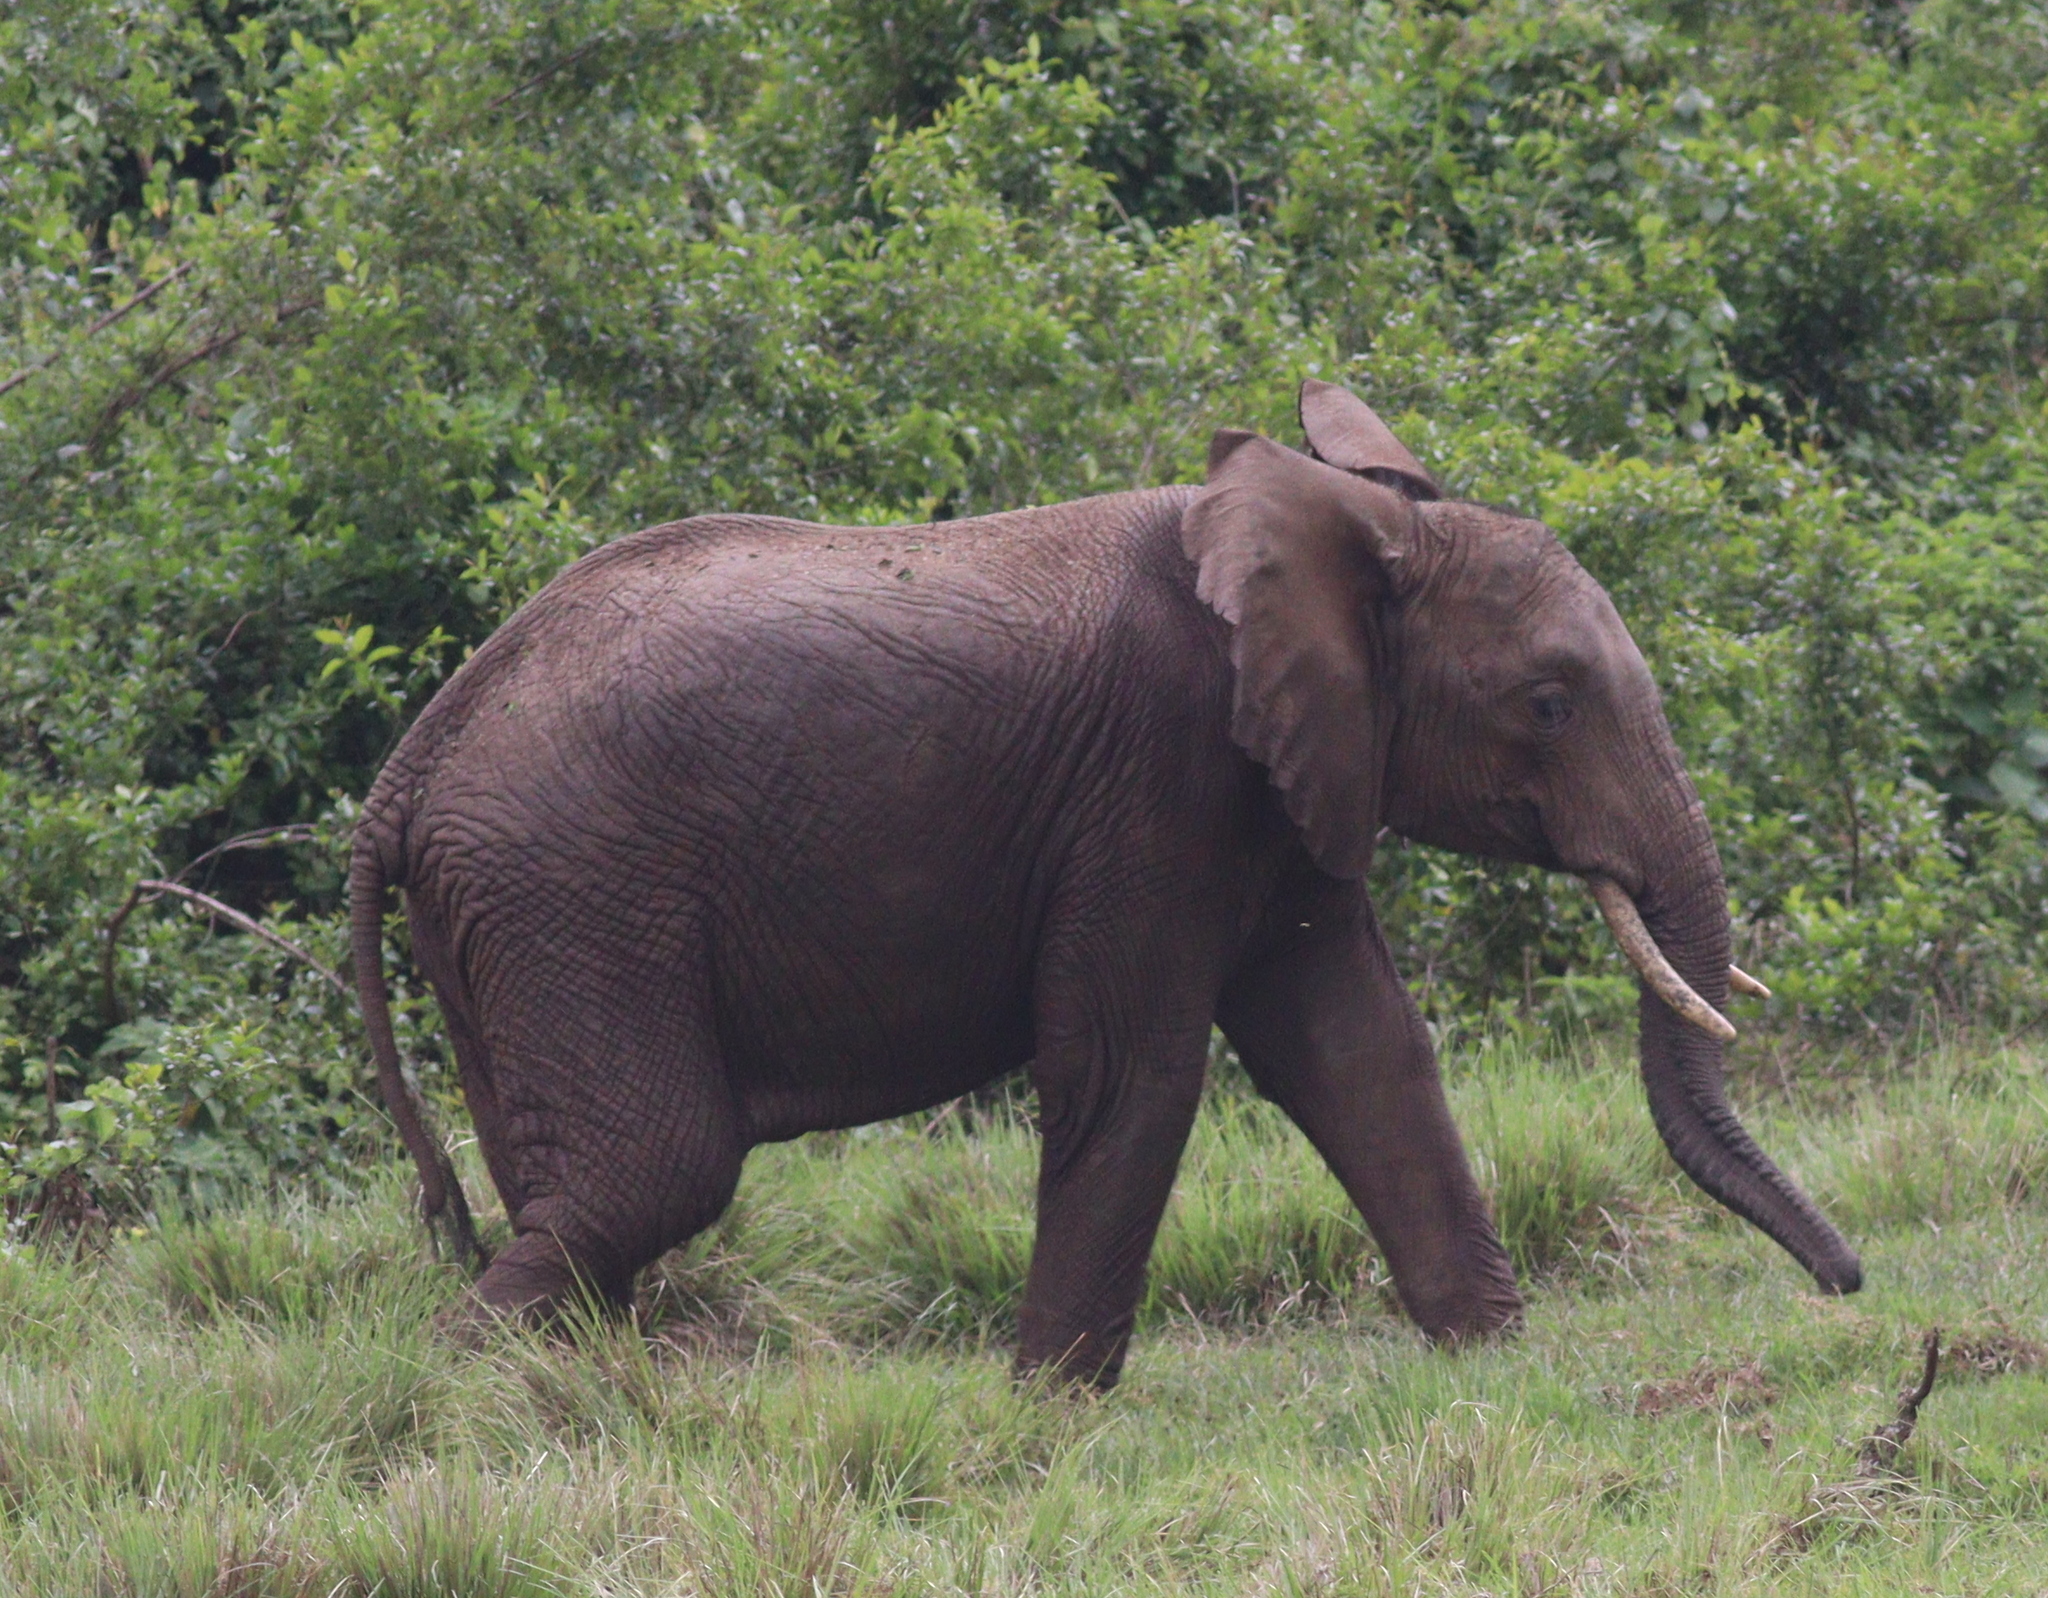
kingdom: Animalia
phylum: Chordata
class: Mammalia
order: Proboscidea
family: Elephantidae
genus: Loxodonta
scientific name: Loxodonta africana
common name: African elephant
